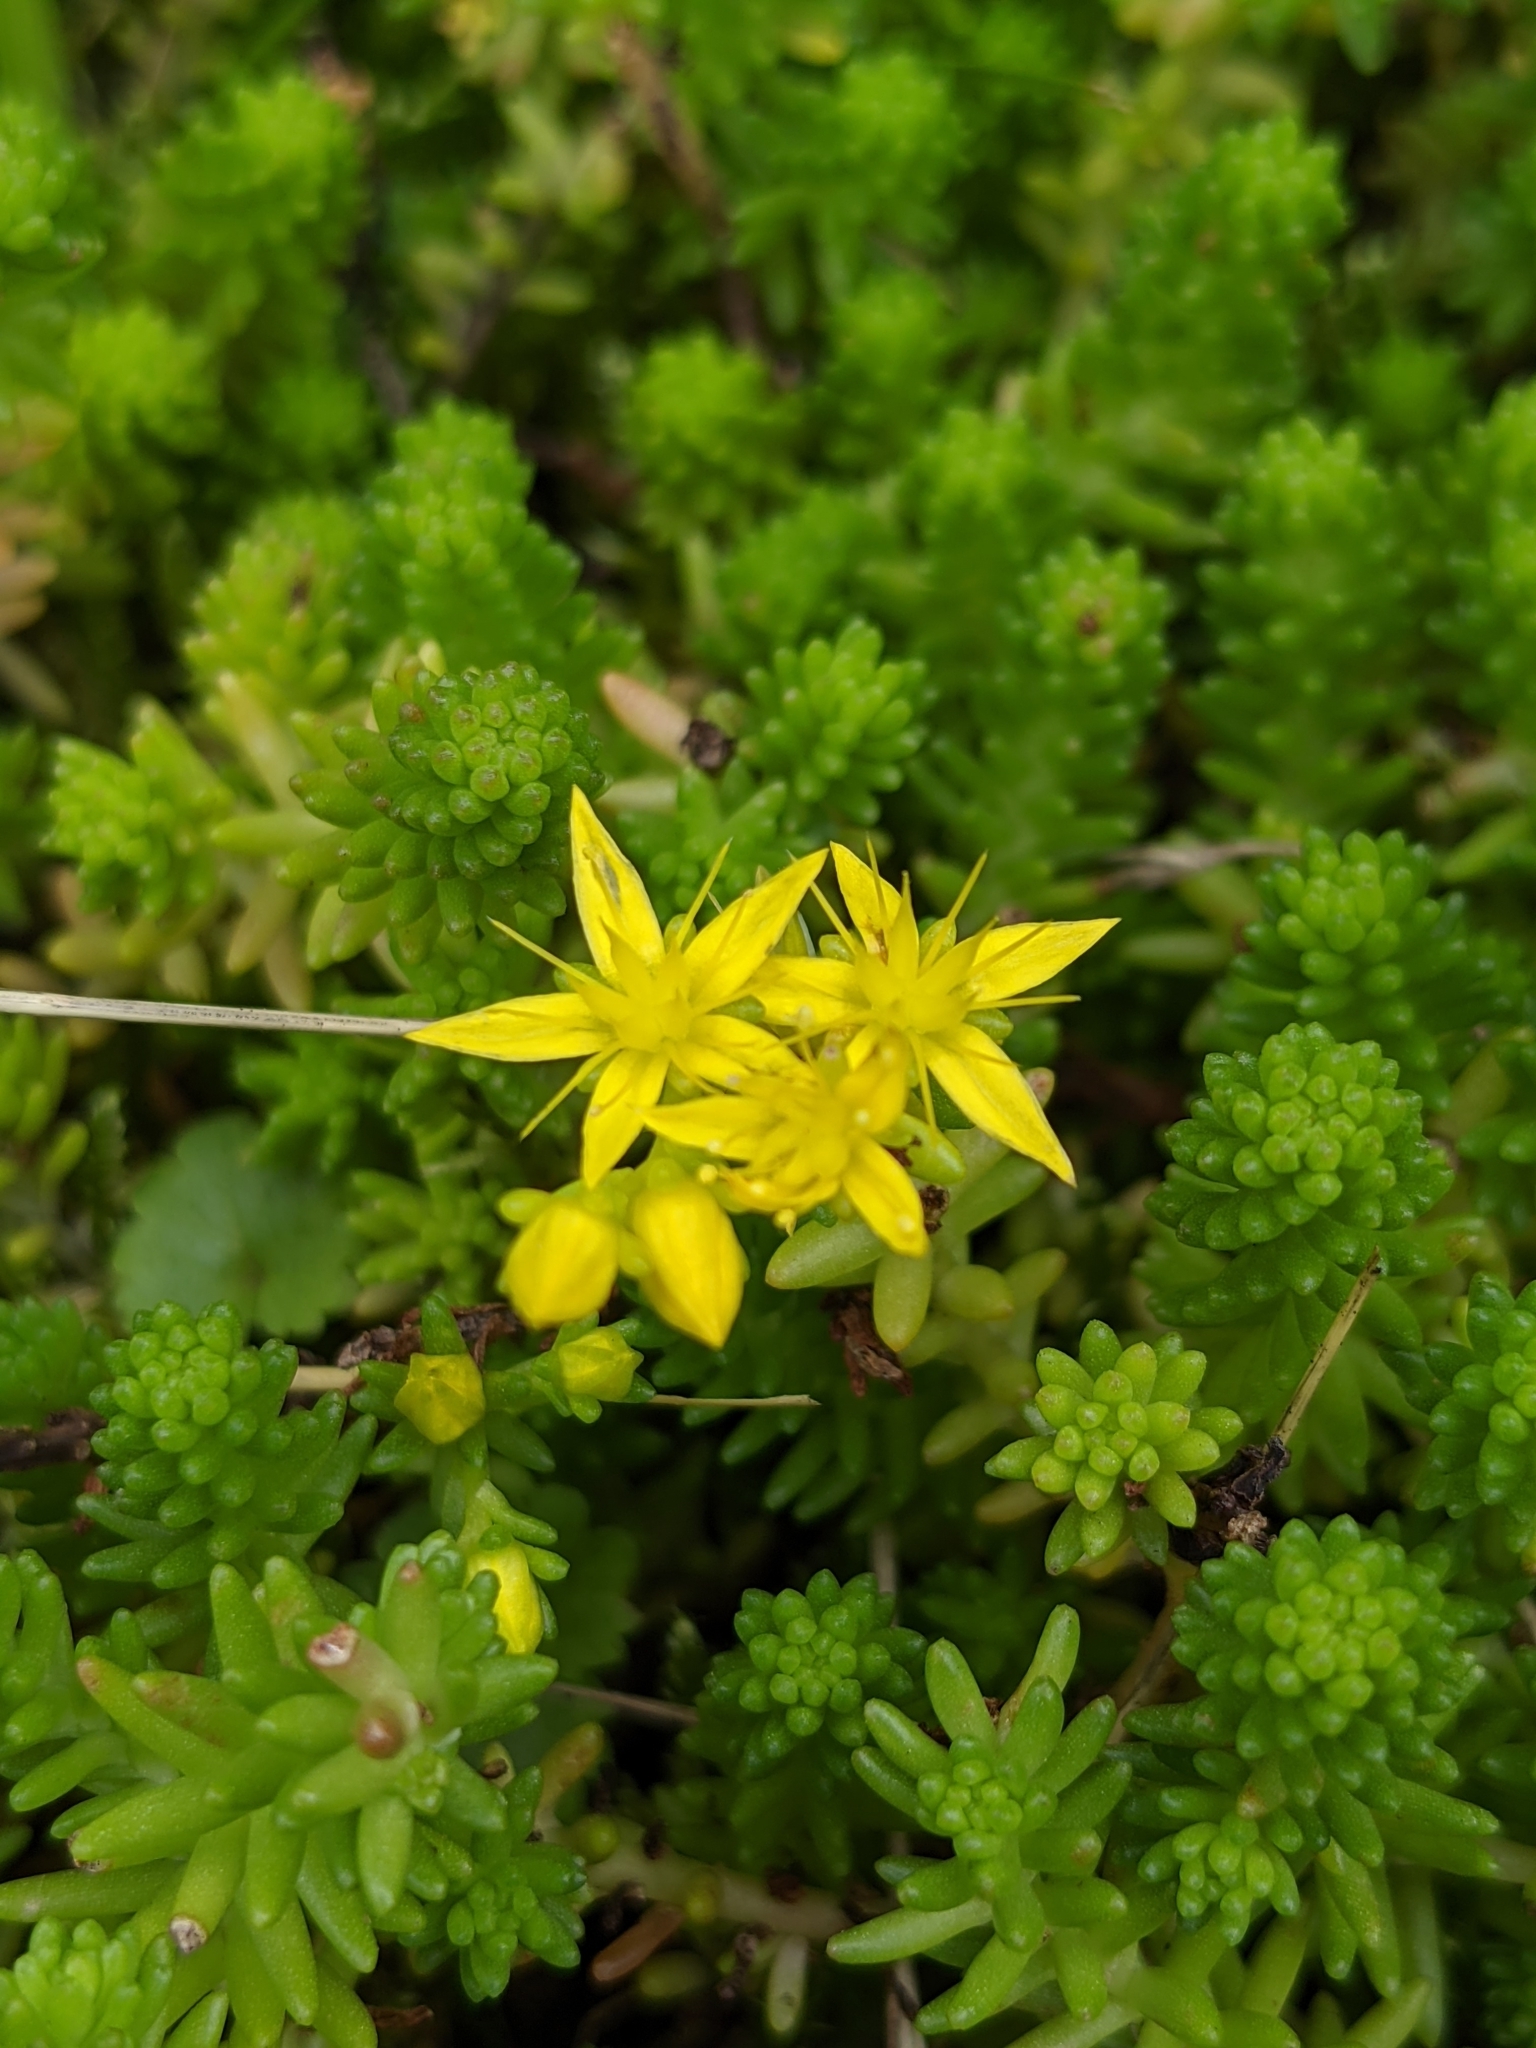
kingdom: Plantae
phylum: Tracheophyta
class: Magnoliopsida
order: Saxifragales
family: Crassulaceae
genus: Sedum
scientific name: Sedum sexangulare
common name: Tasteless stonecrop
